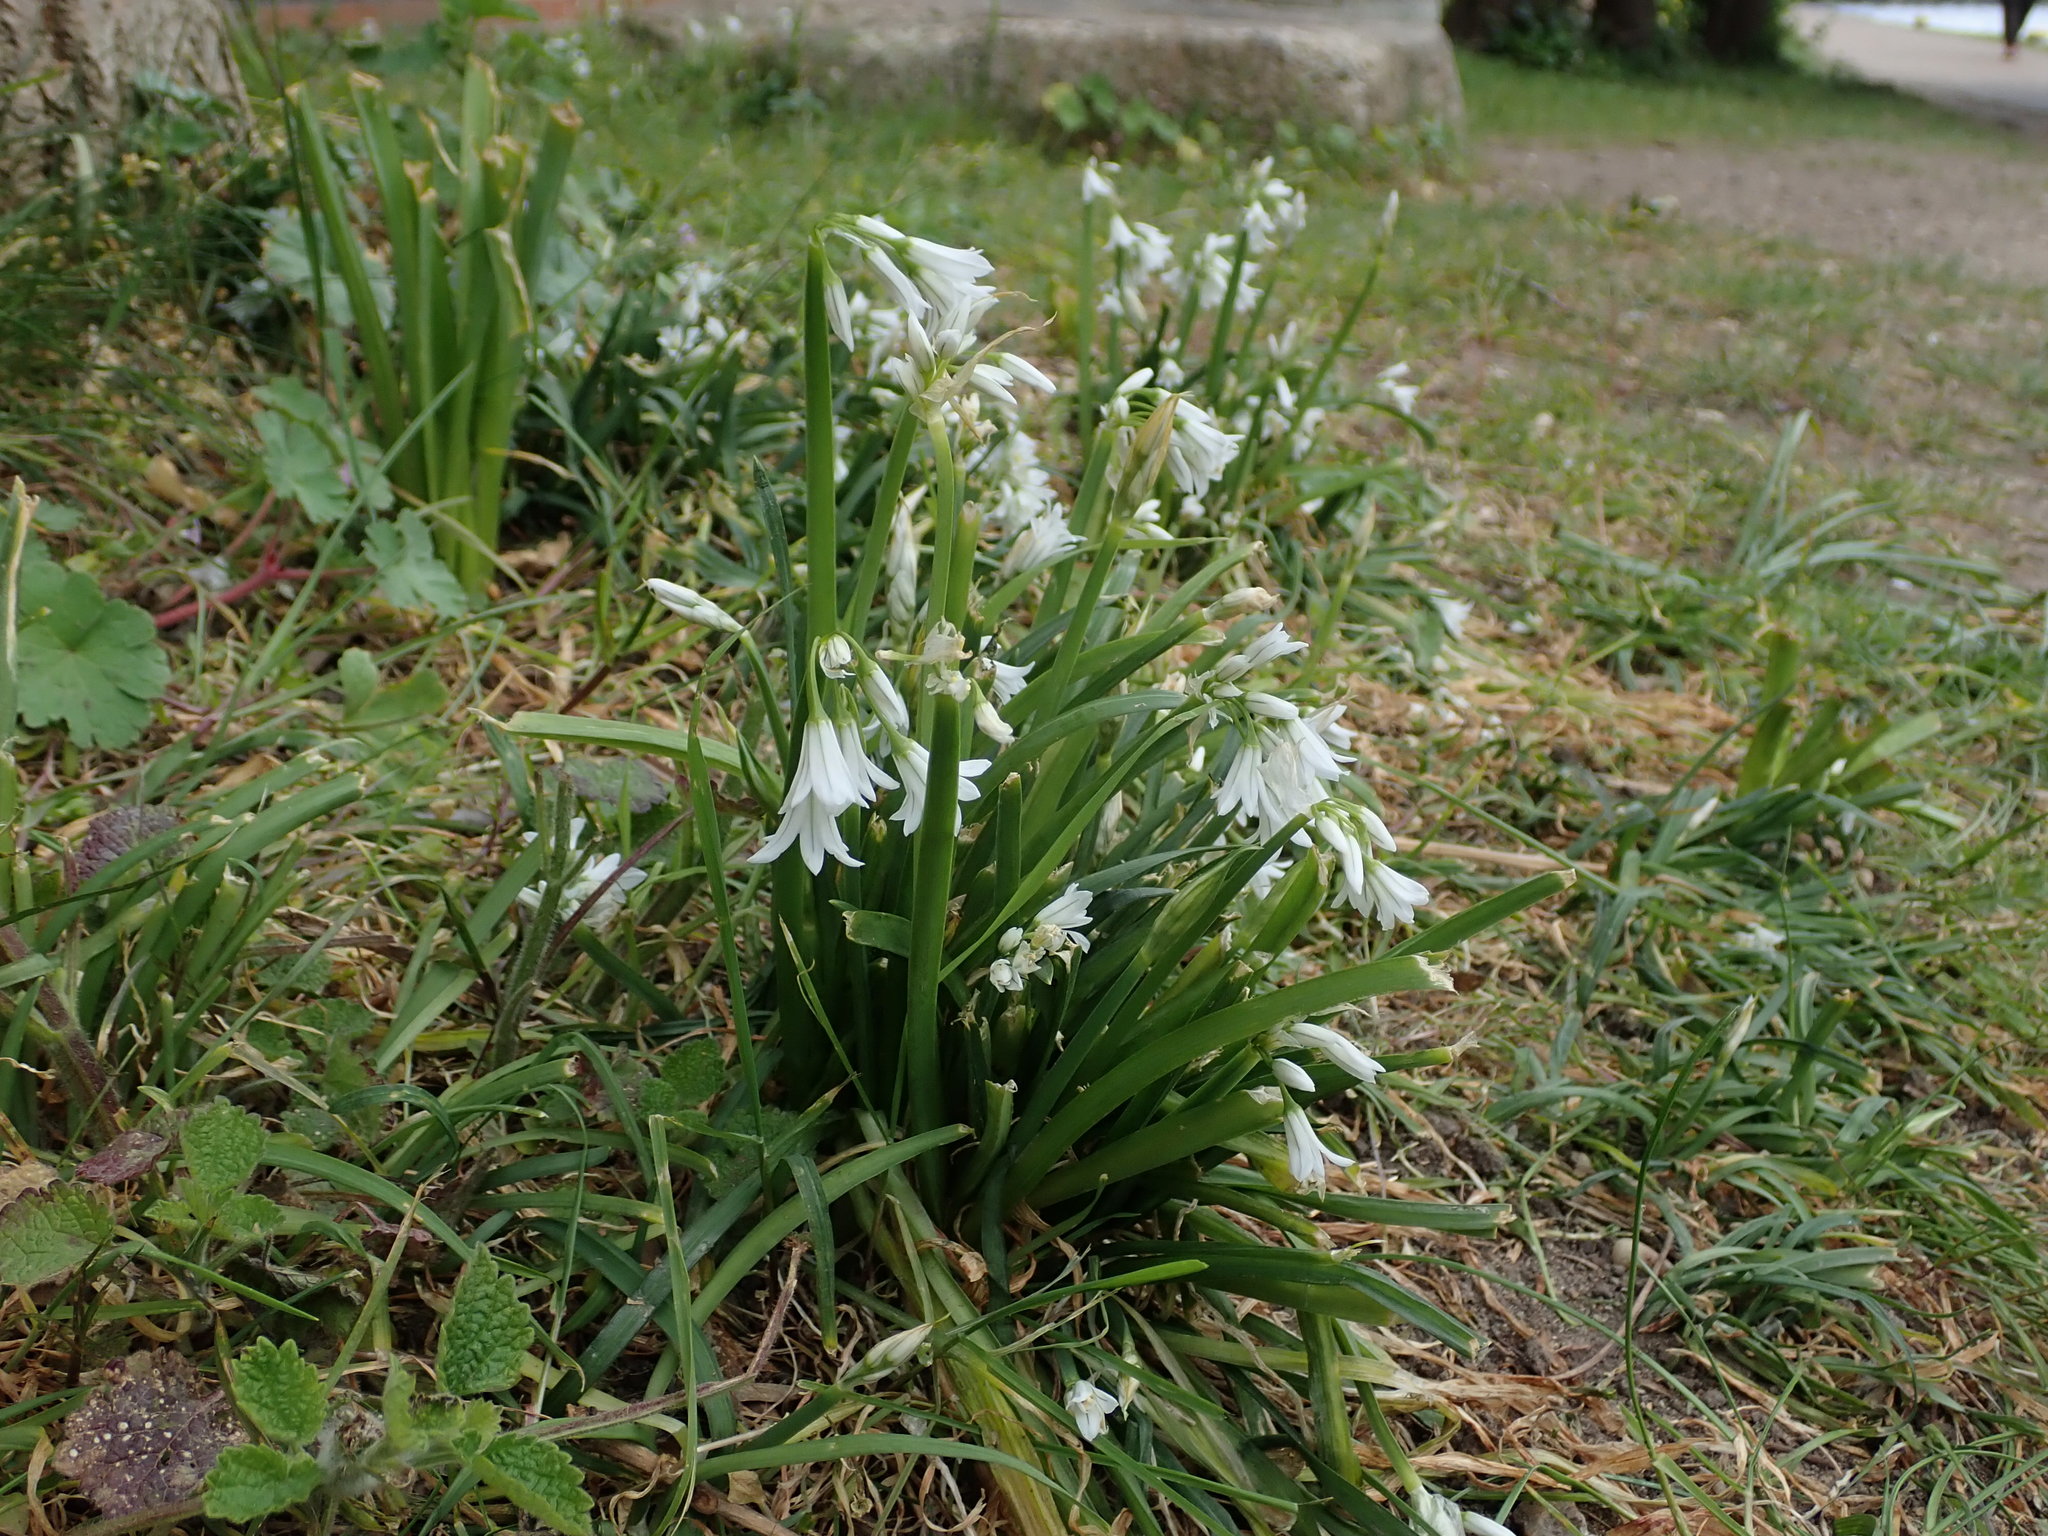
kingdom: Plantae
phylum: Tracheophyta
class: Liliopsida
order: Asparagales
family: Amaryllidaceae
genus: Allium
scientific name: Allium triquetrum
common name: Three-cornered garlic
